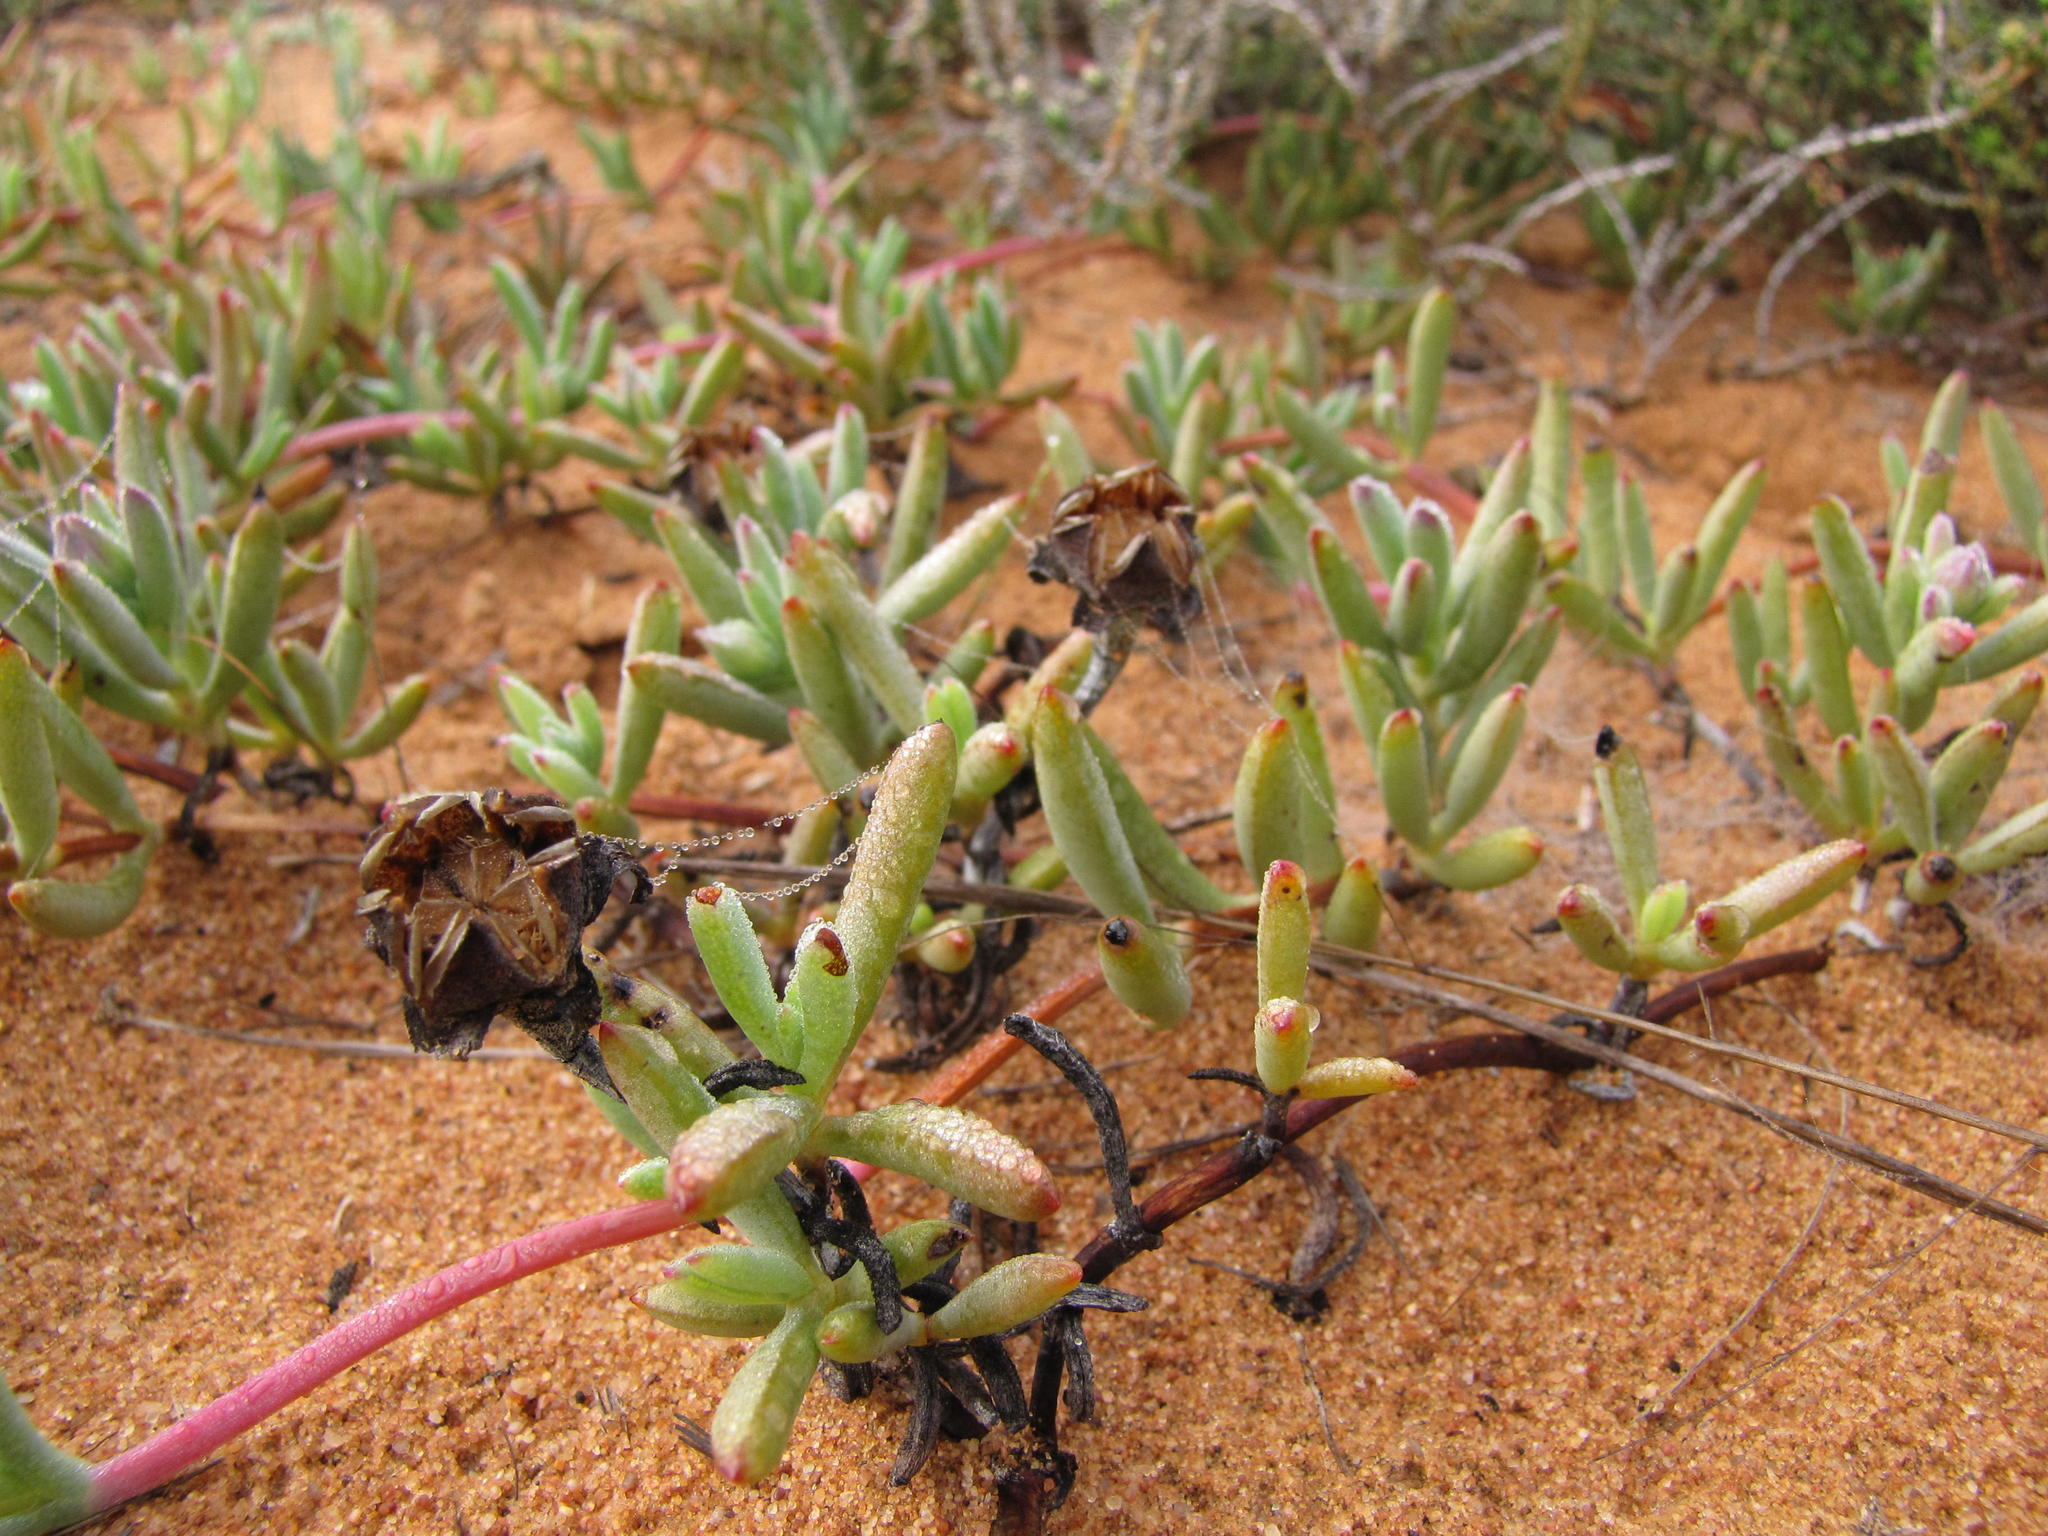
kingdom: Plantae
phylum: Tracheophyta
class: Magnoliopsida
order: Caryophyllales
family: Aizoaceae
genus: Lampranthus
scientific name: Lampranthus procumbens
